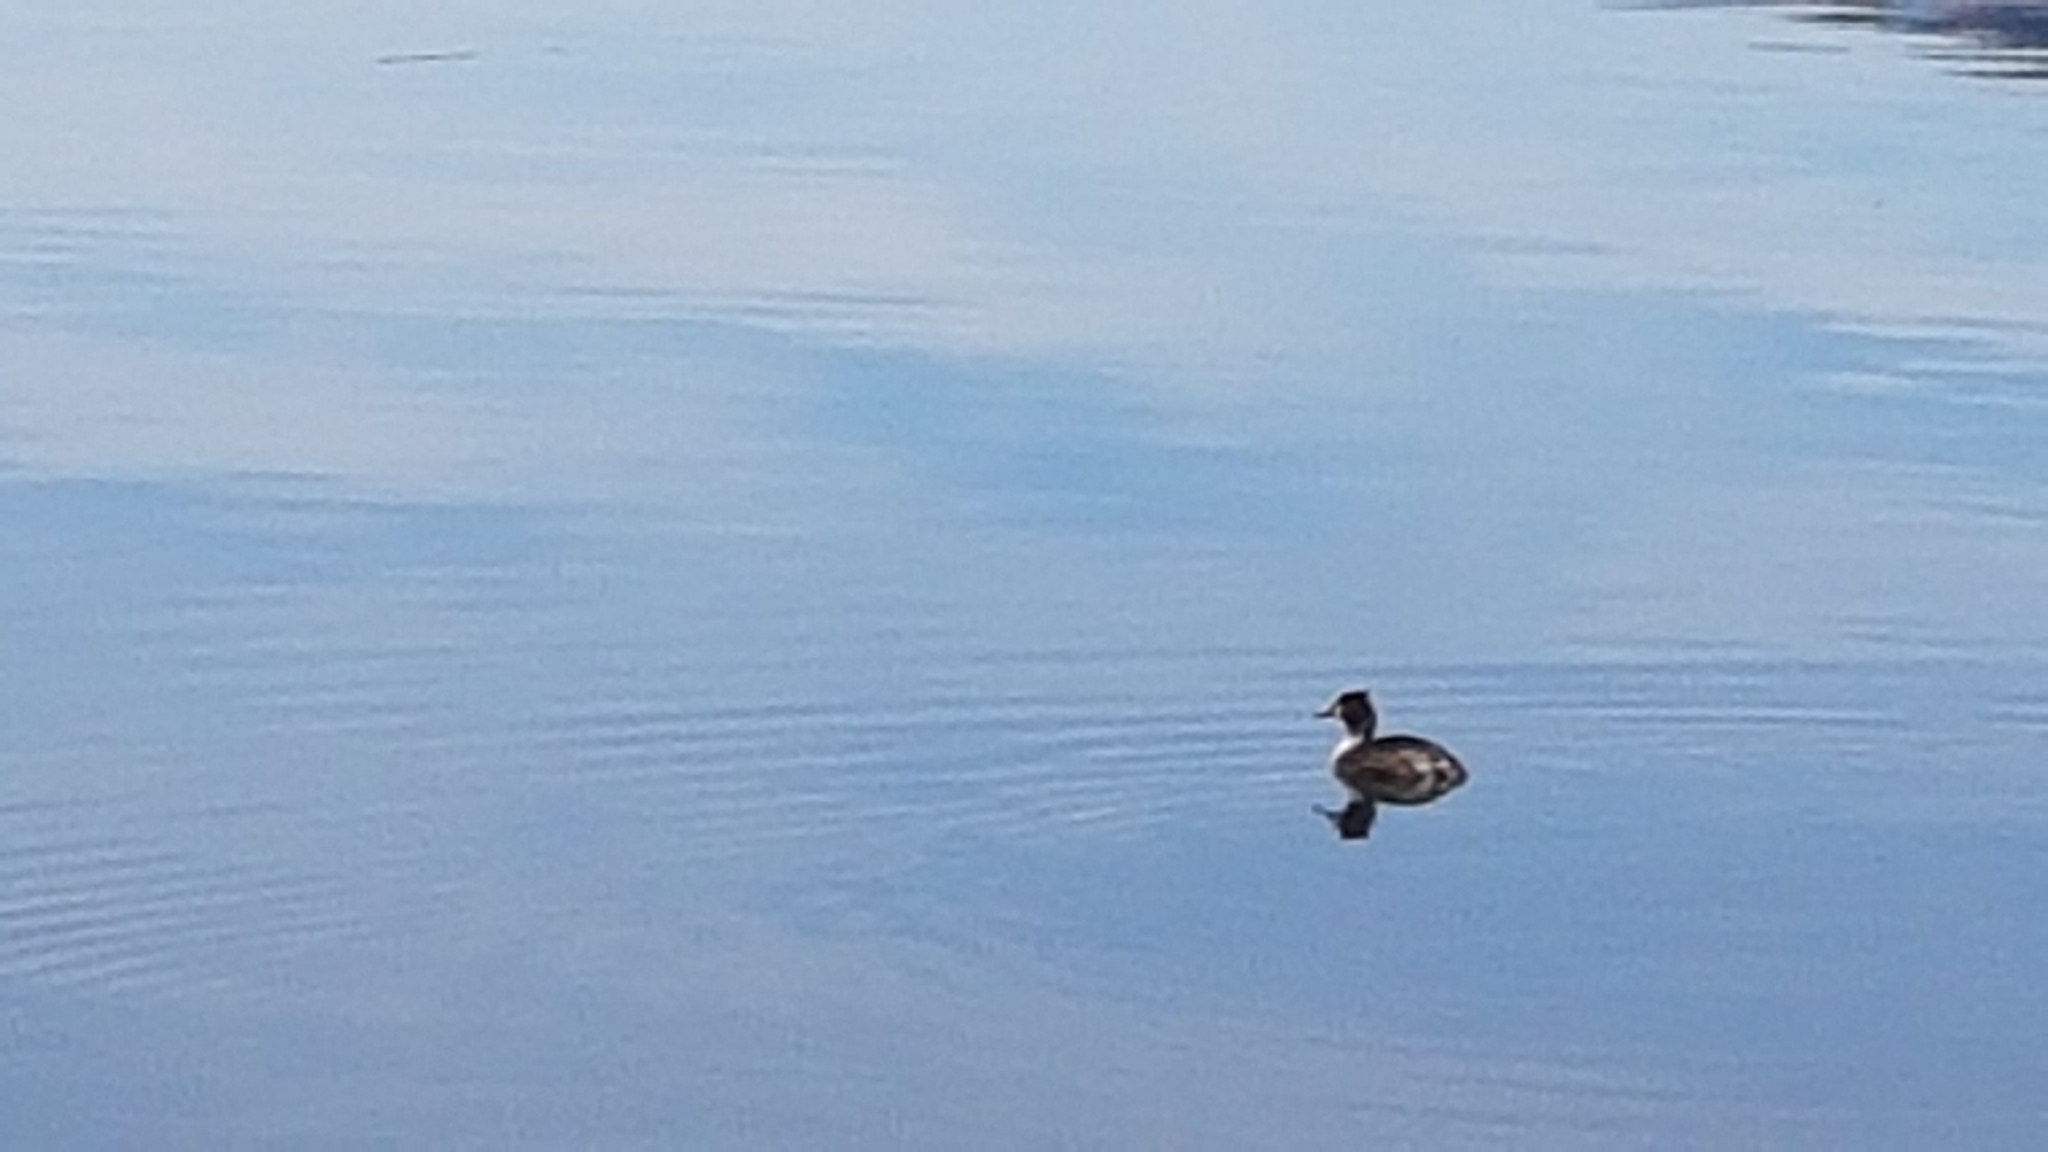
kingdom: Animalia
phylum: Chordata
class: Aves
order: Podicipediformes
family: Podicipedidae
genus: Podiceps
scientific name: Podiceps cristatus
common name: Great crested grebe
